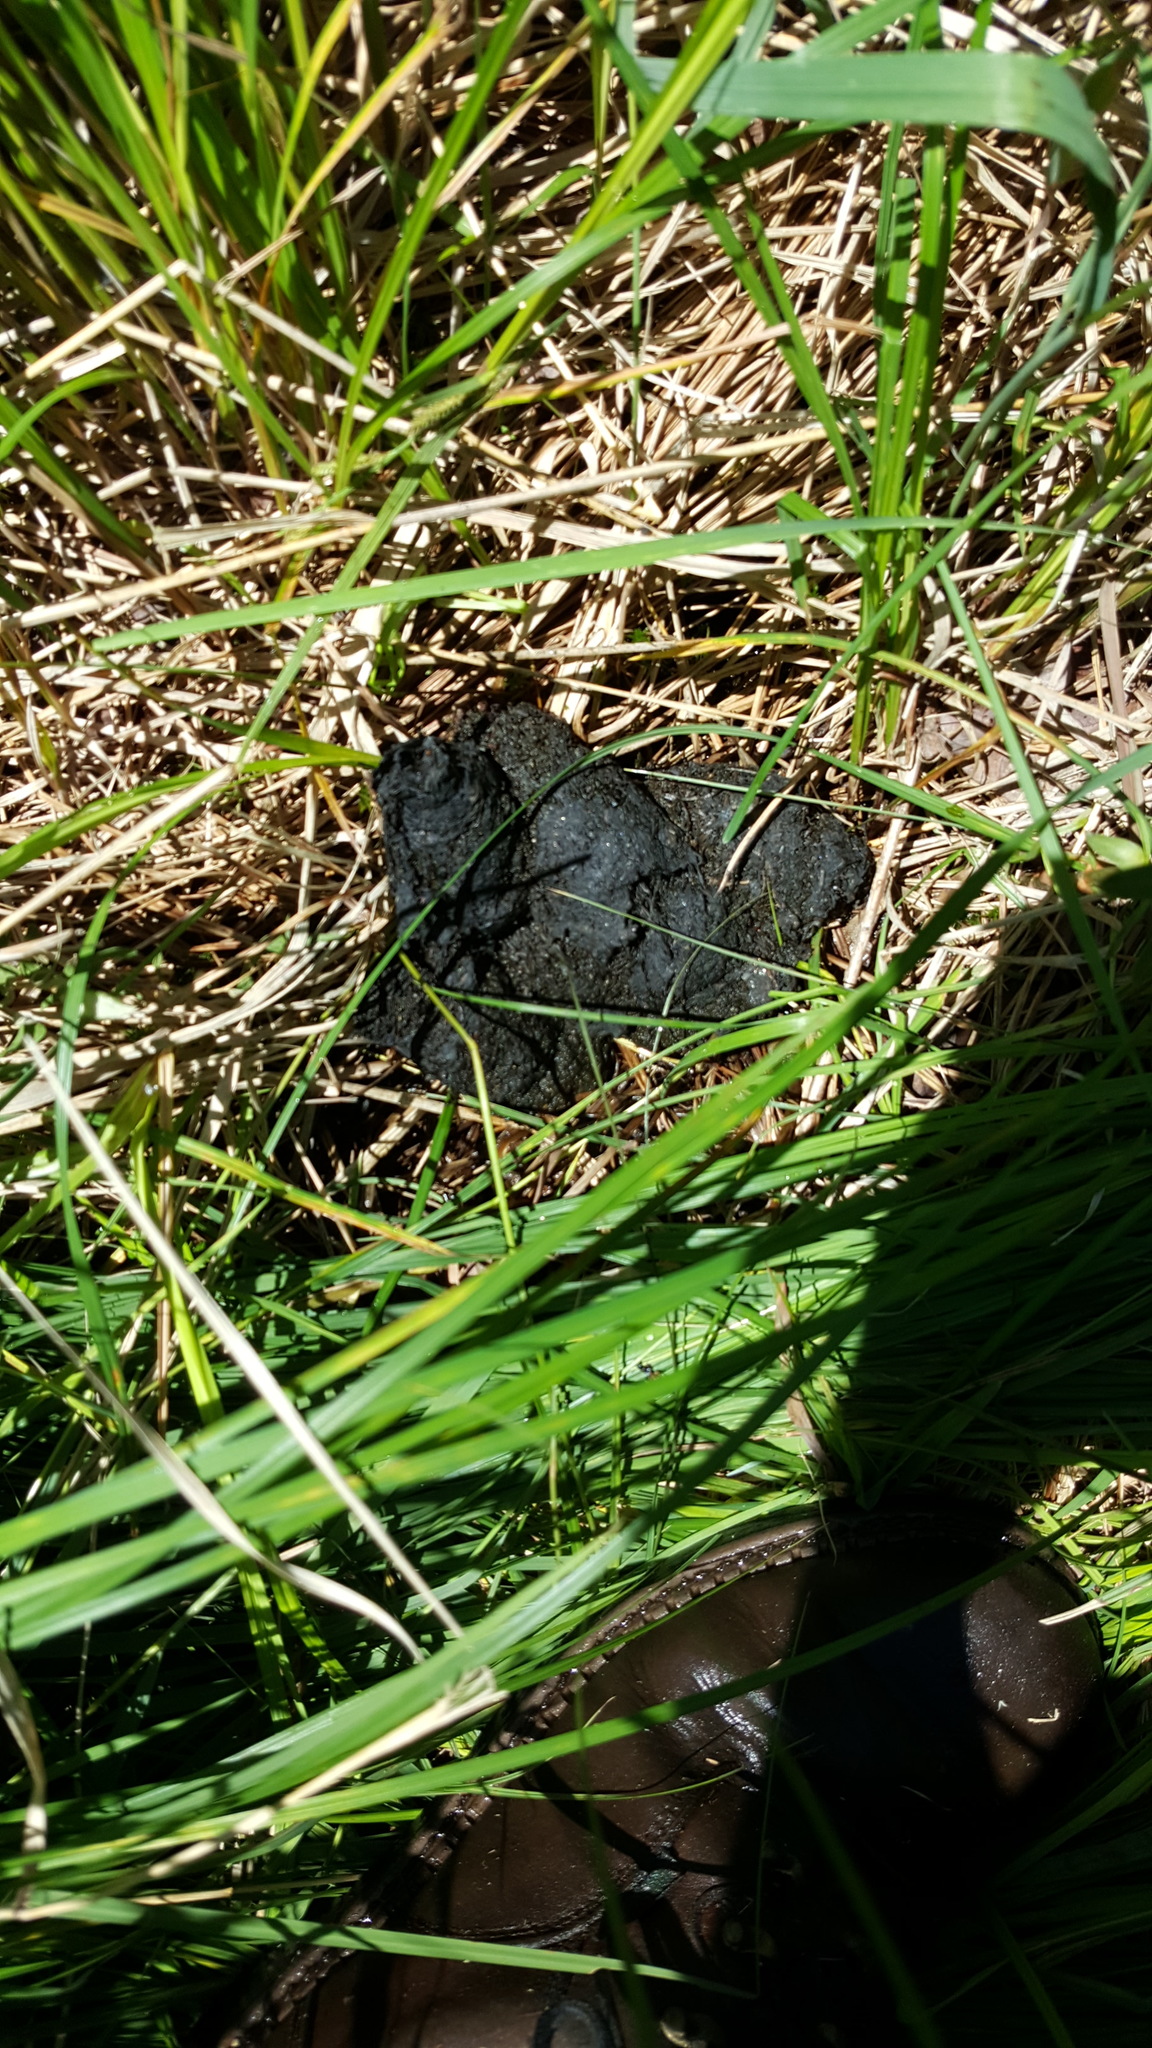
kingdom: Animalia
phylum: Chordata
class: Mammalia
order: Carnivora
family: Ursidae
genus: Ursus
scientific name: Ursus americanus
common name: American black bear
